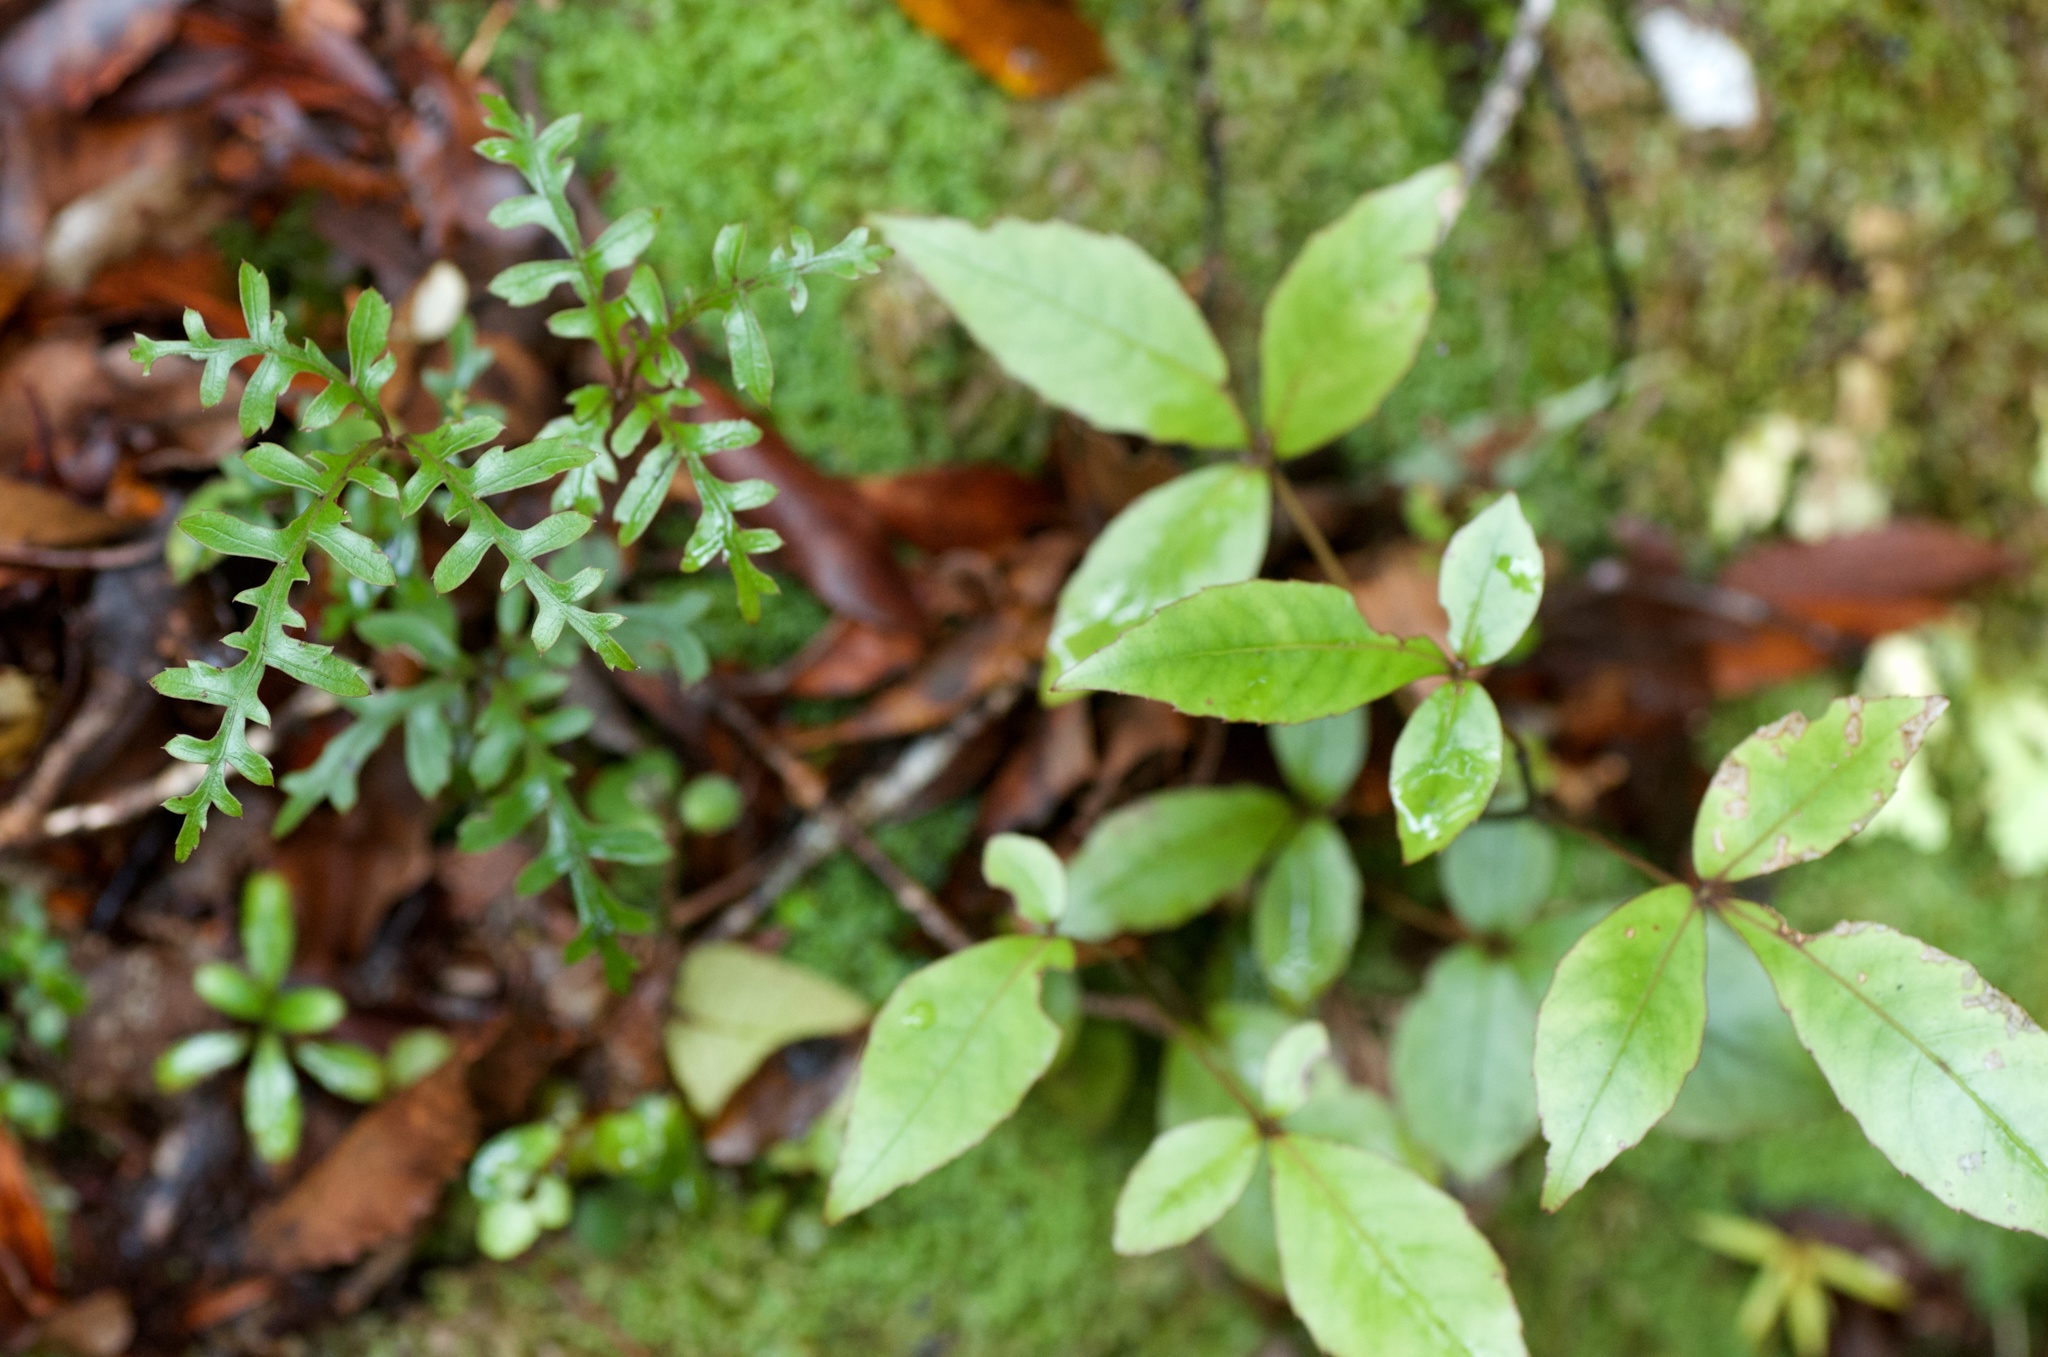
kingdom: Plantae
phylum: Tracheophyta
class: Magnoliopsida
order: Apiales
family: Araliaceae
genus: Raukaua
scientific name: Raukaua simplex
